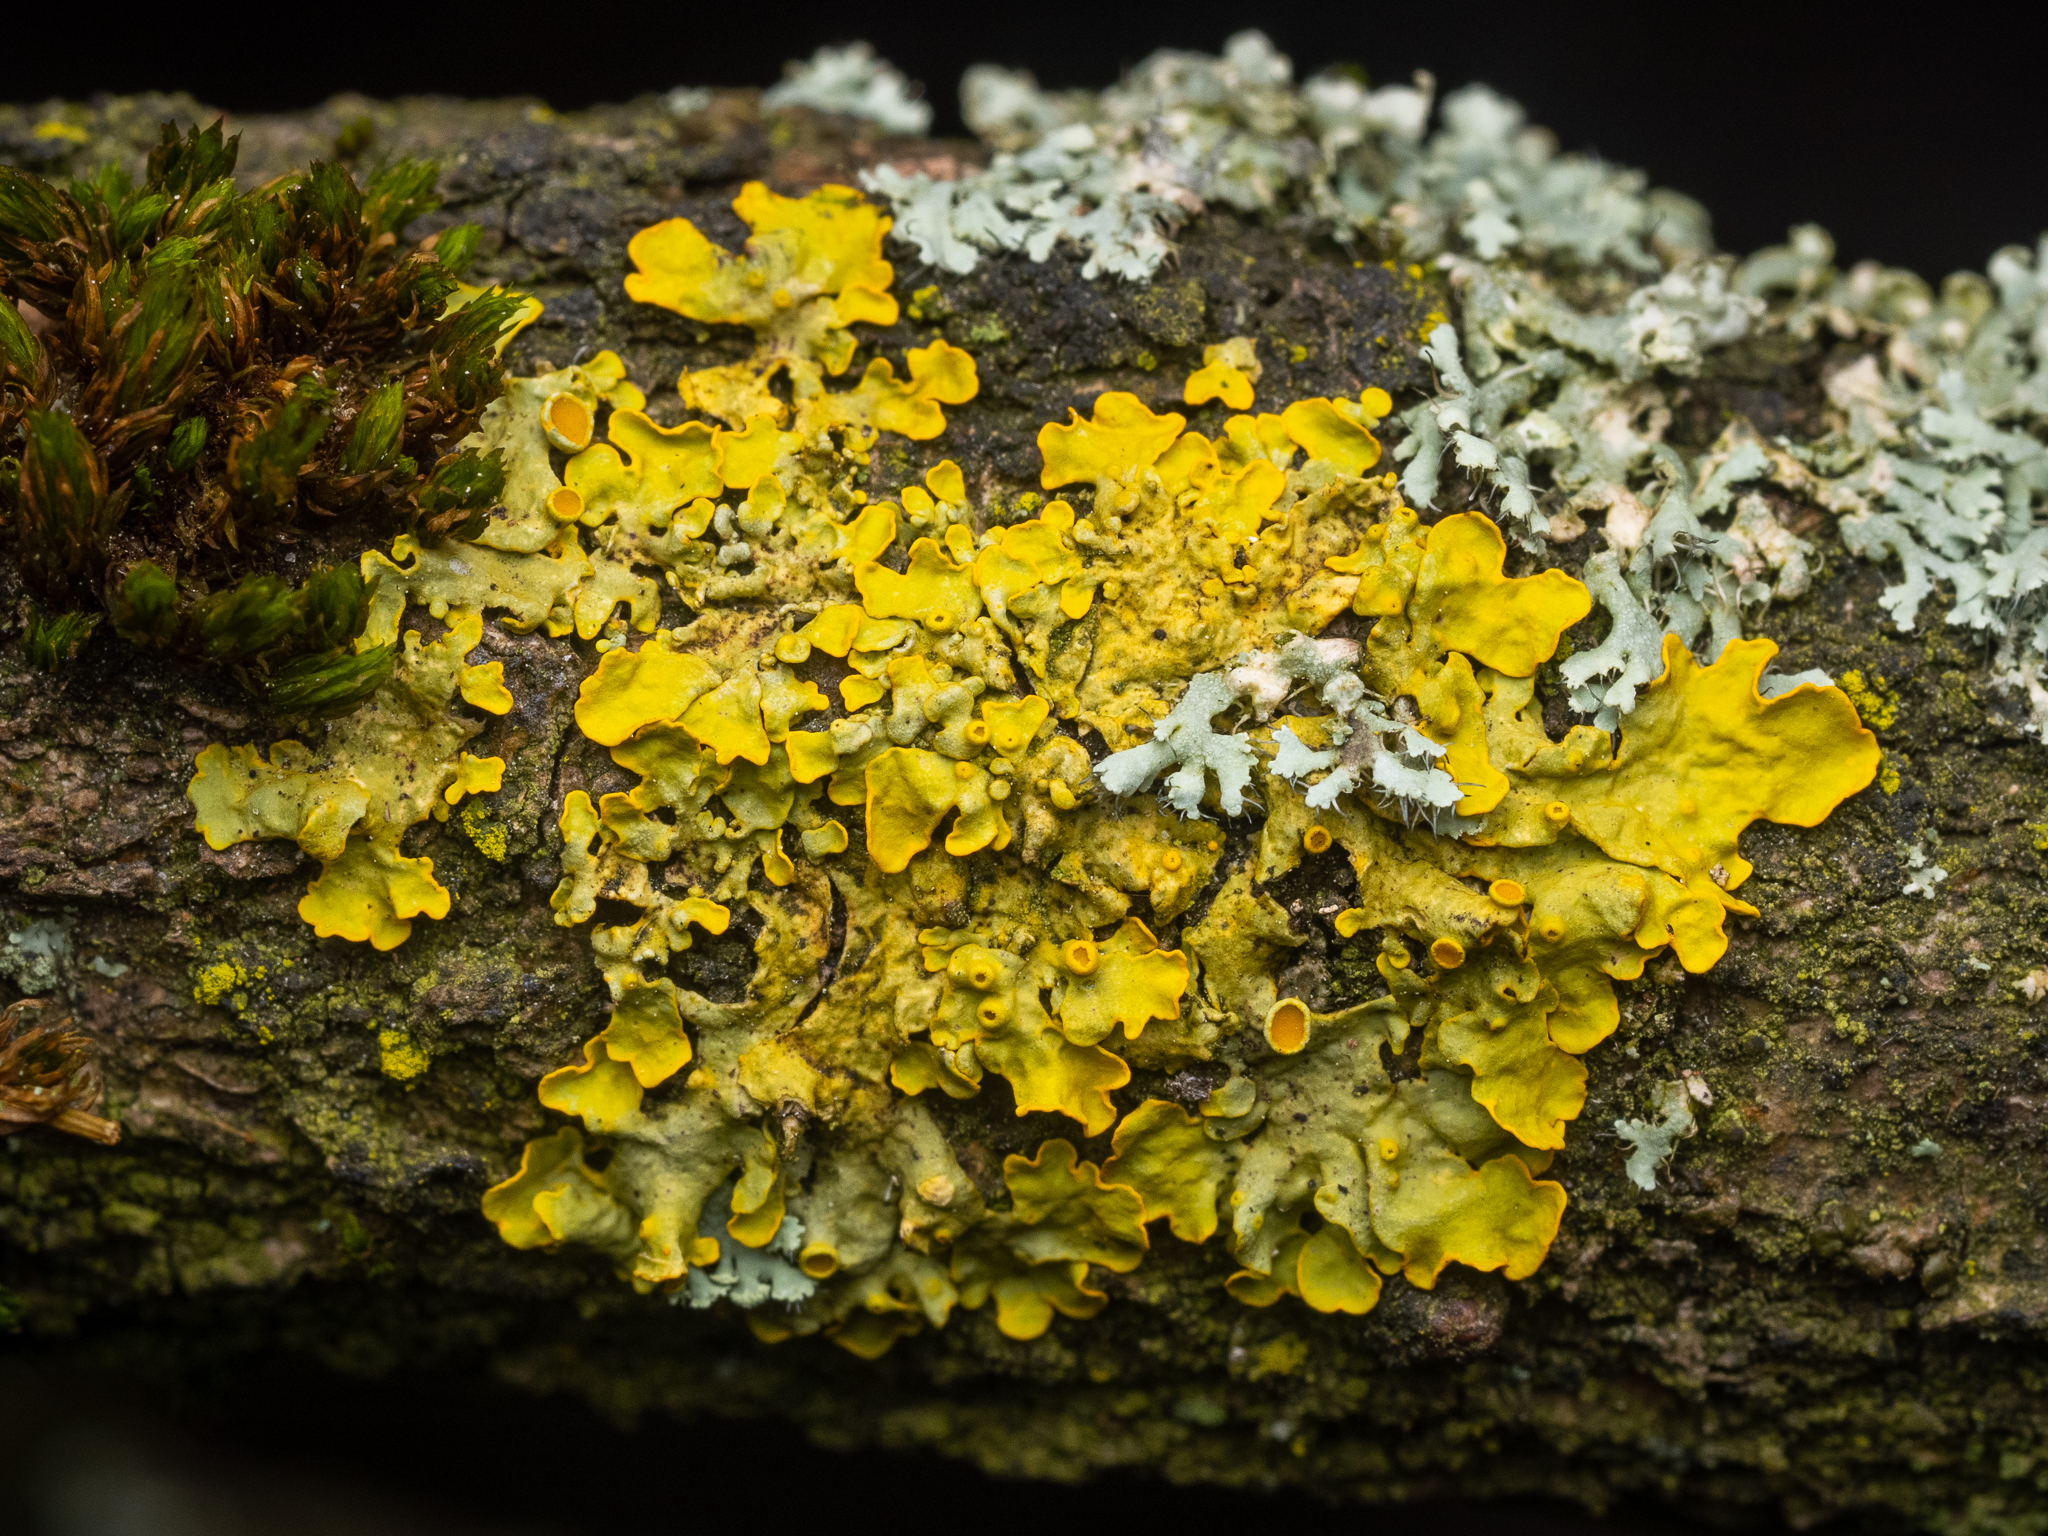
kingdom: Fungi
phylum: Ascomycota
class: Lecanoromycetes
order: Teloschistales
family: Teloschistaceae
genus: Xanthoria
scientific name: Xanthoria parietina
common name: Common orange lichen
